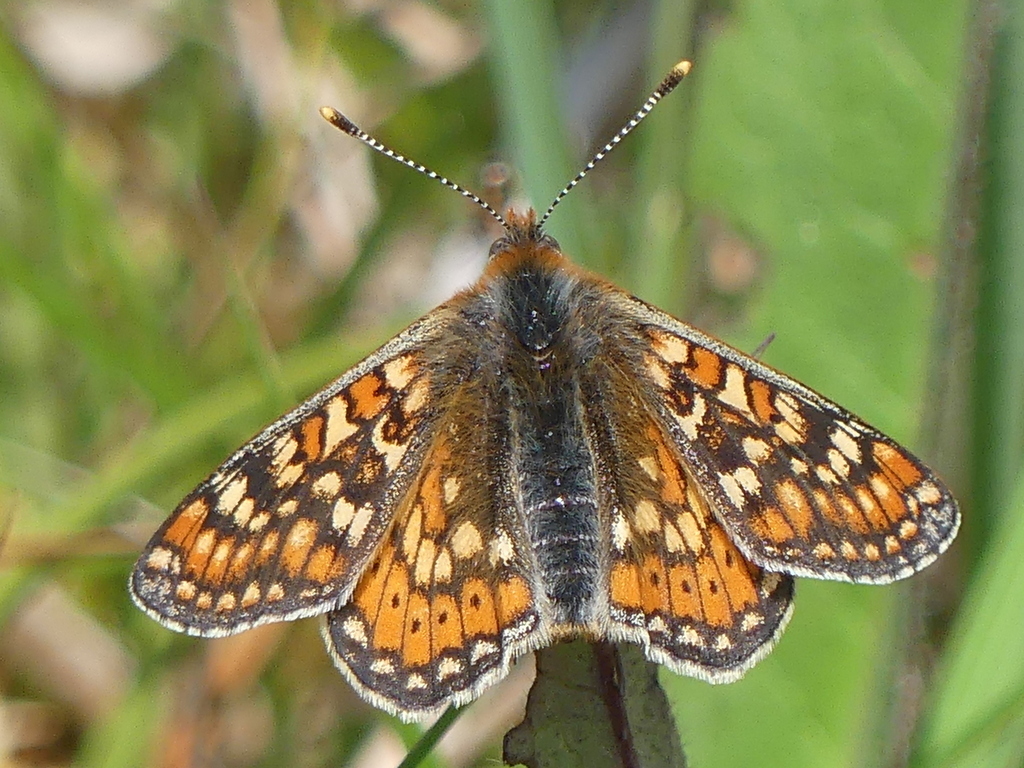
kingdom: Animalia
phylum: Arthropoda
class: Insecta
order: Lepidoptera
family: Nymphalidae
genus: Euphydryas
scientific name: Euphydryas aurinia
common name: Marsh fritillary
